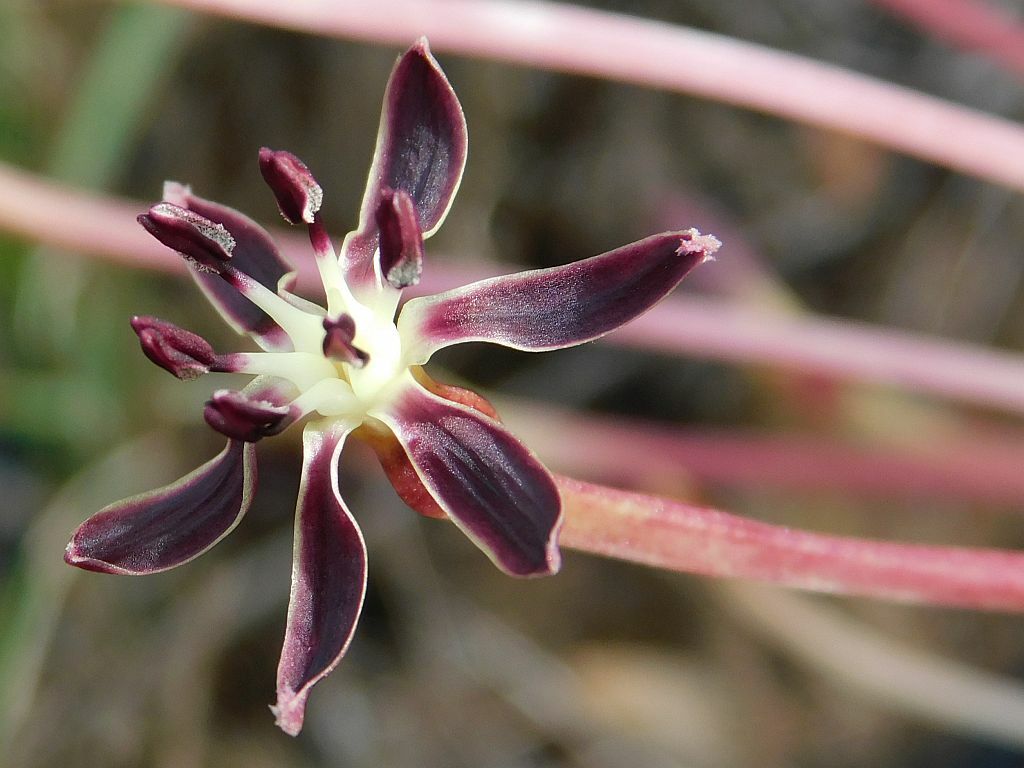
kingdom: Plantae
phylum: Tracheophyta
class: Liliopsida
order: Asparagales
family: Amaryllidaceae
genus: Crossyne
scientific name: Crossyne guttata
